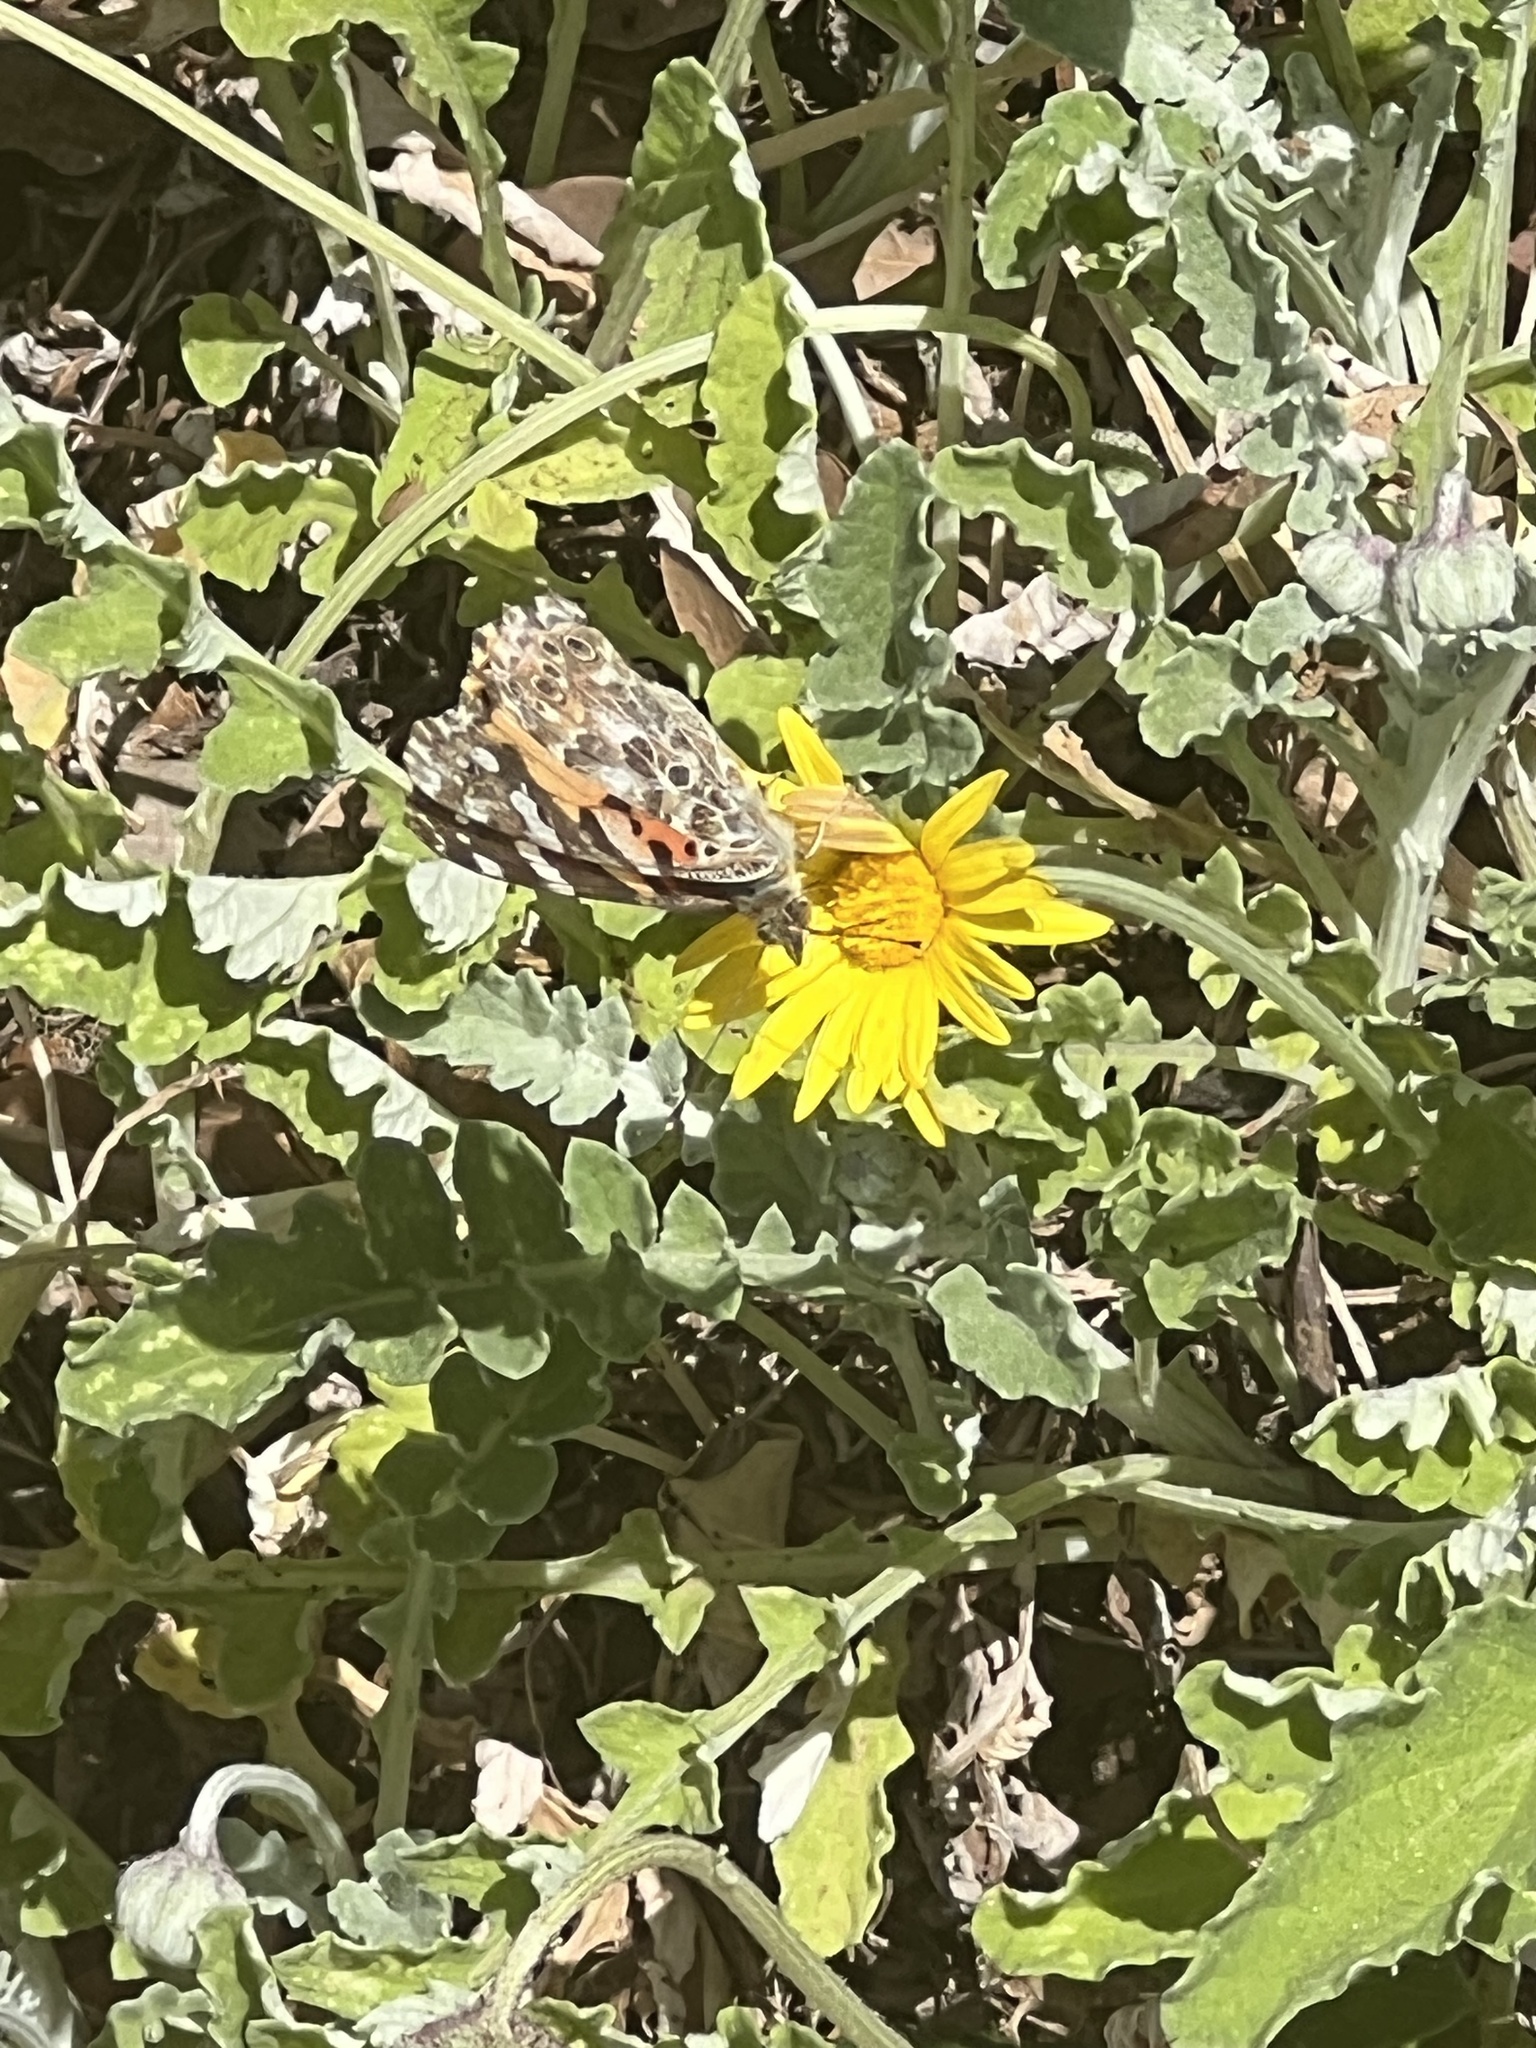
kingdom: Animalia
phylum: Arthropoda
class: Insecta
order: Lepidoptera
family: Nymphalidae
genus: Vanessa
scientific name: Vanessa cardui
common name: Painted lady
